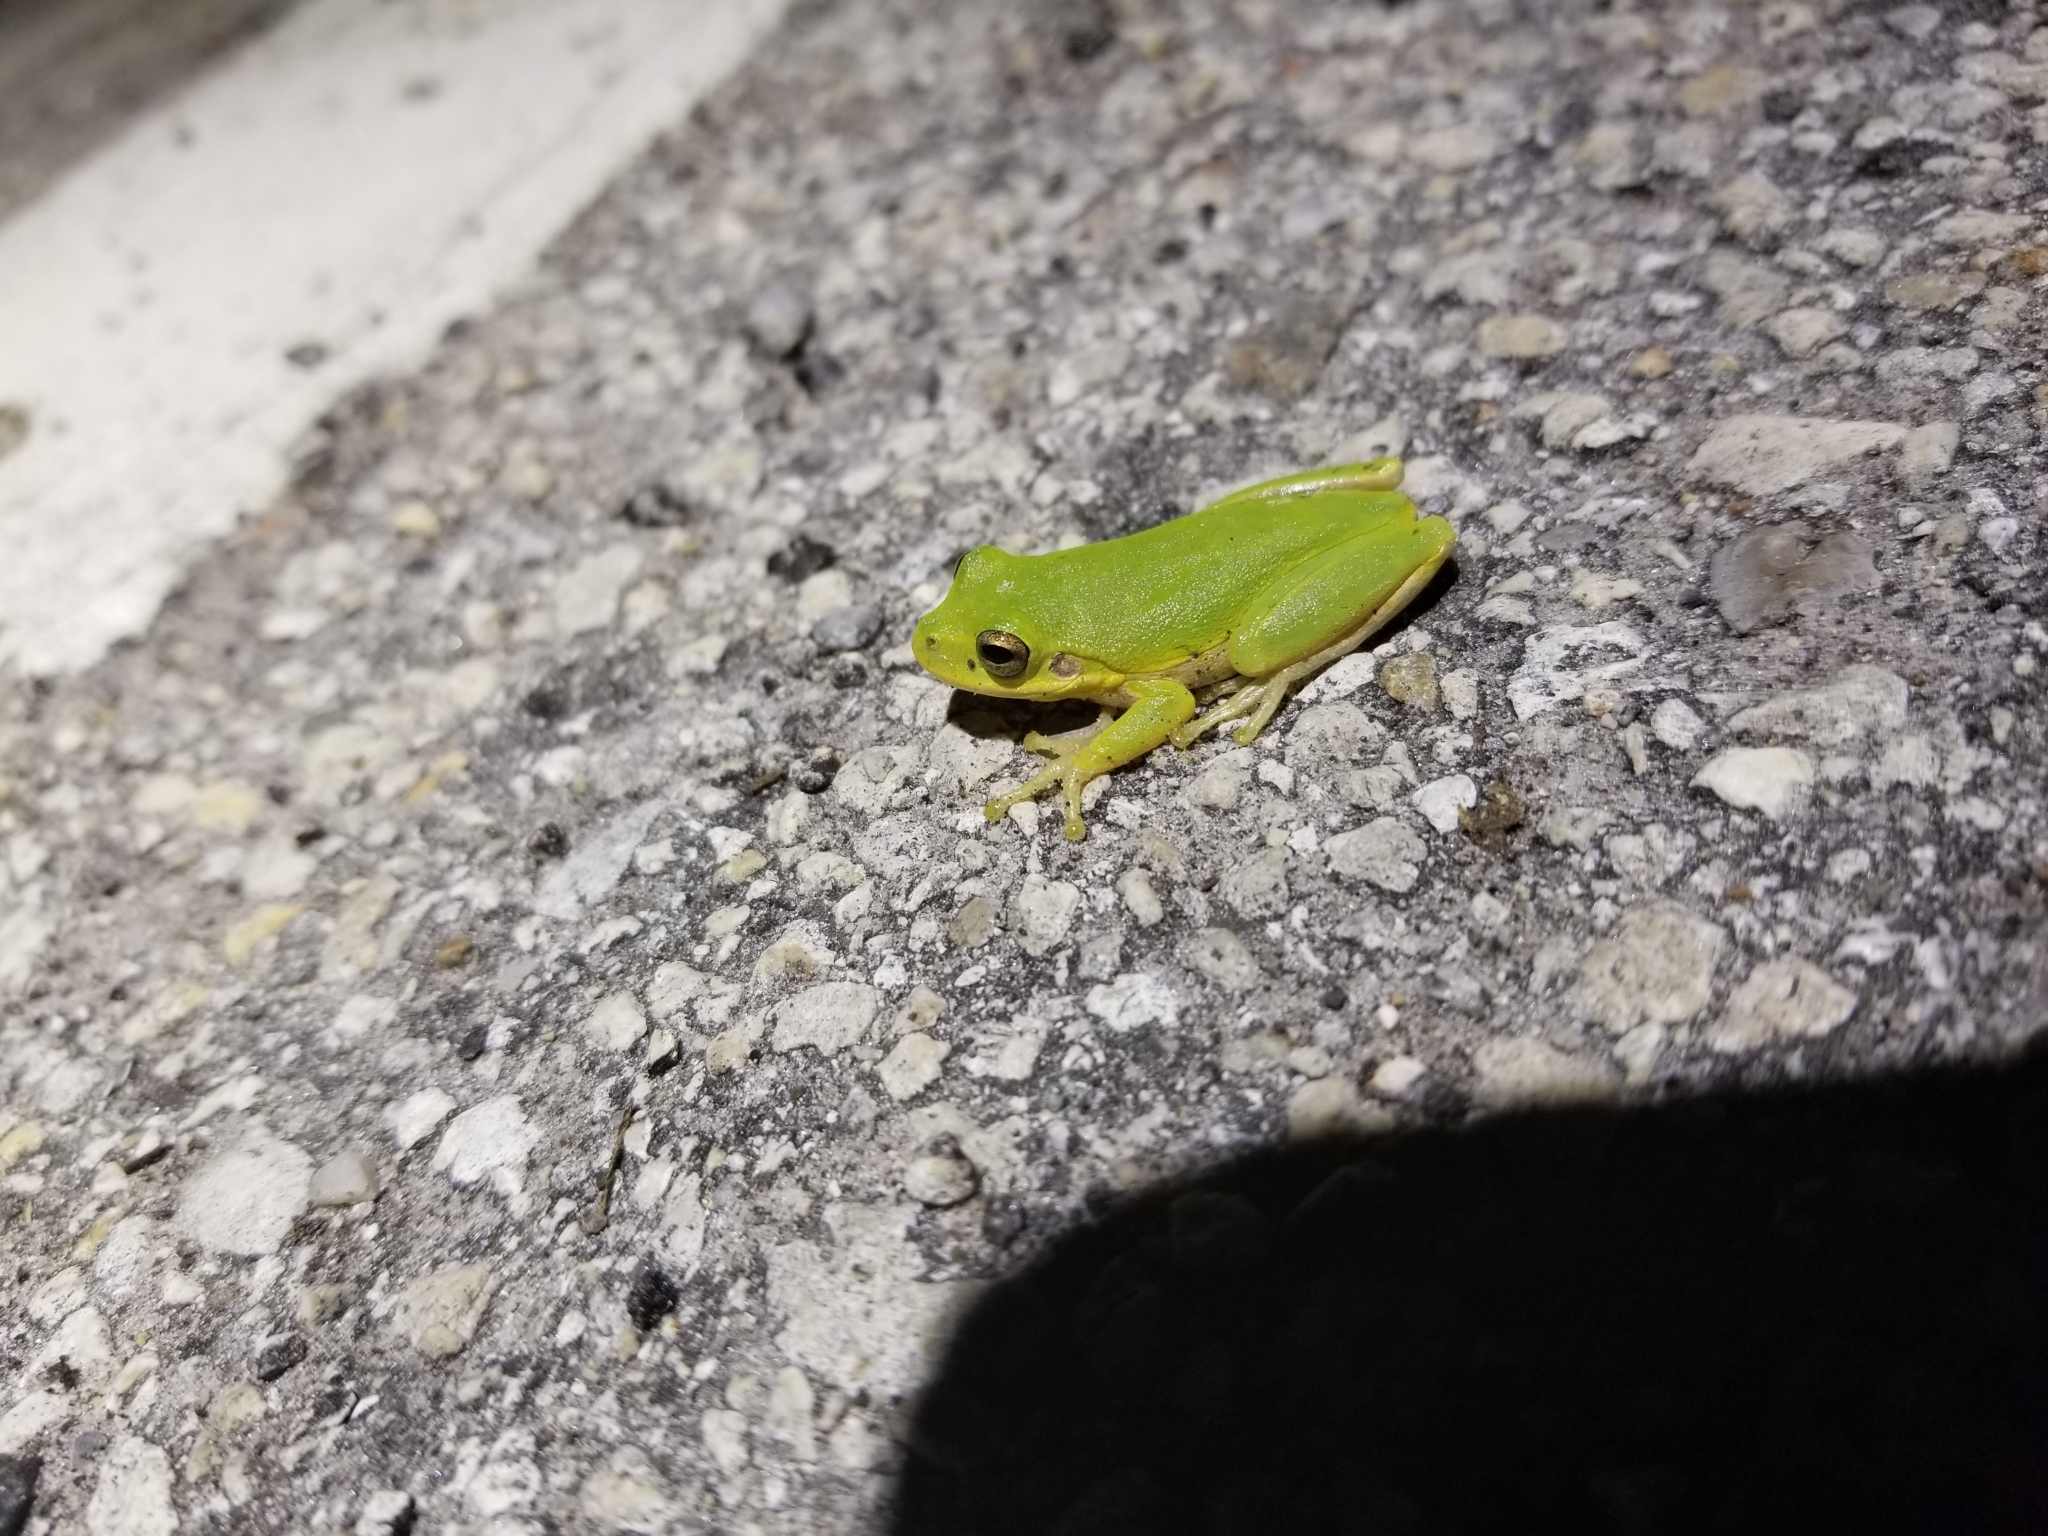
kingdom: Animalia
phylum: Chordata
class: Amphibia
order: Anura
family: Hylidae
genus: Dryophytes
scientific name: Dryophytes squirellus
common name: Squirrel treefrog
